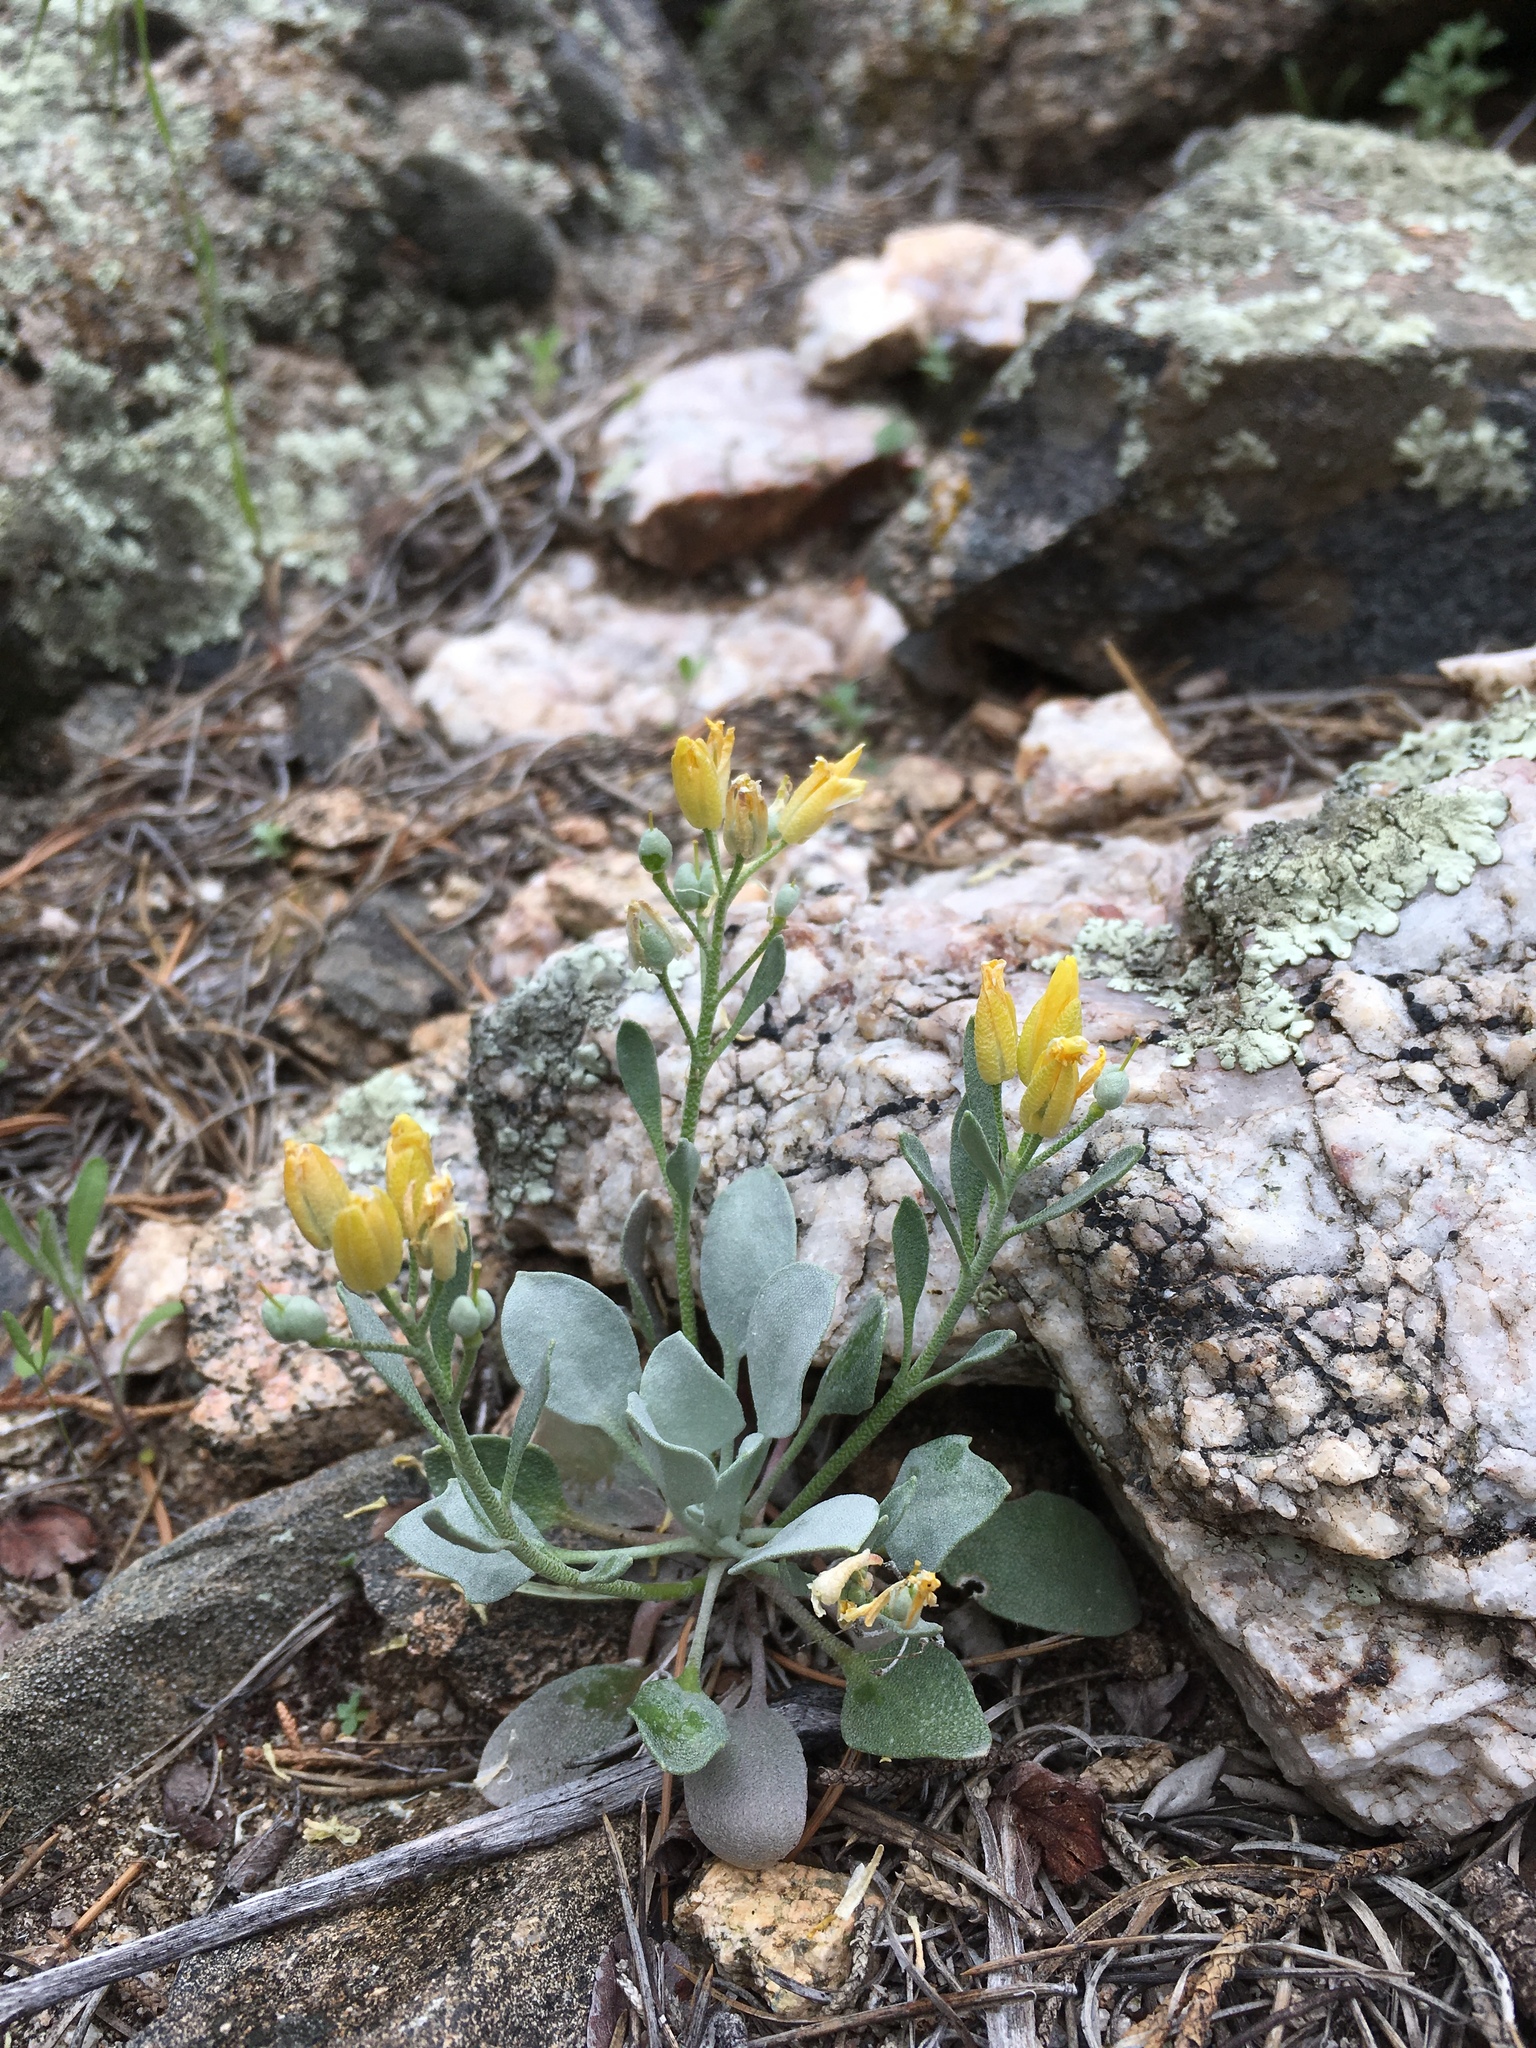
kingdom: Plantae
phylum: Tracheophyta
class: Magnoliopsida
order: Brassicales
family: Brassicaceae
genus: Physaria
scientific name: Physaria acutifolia
